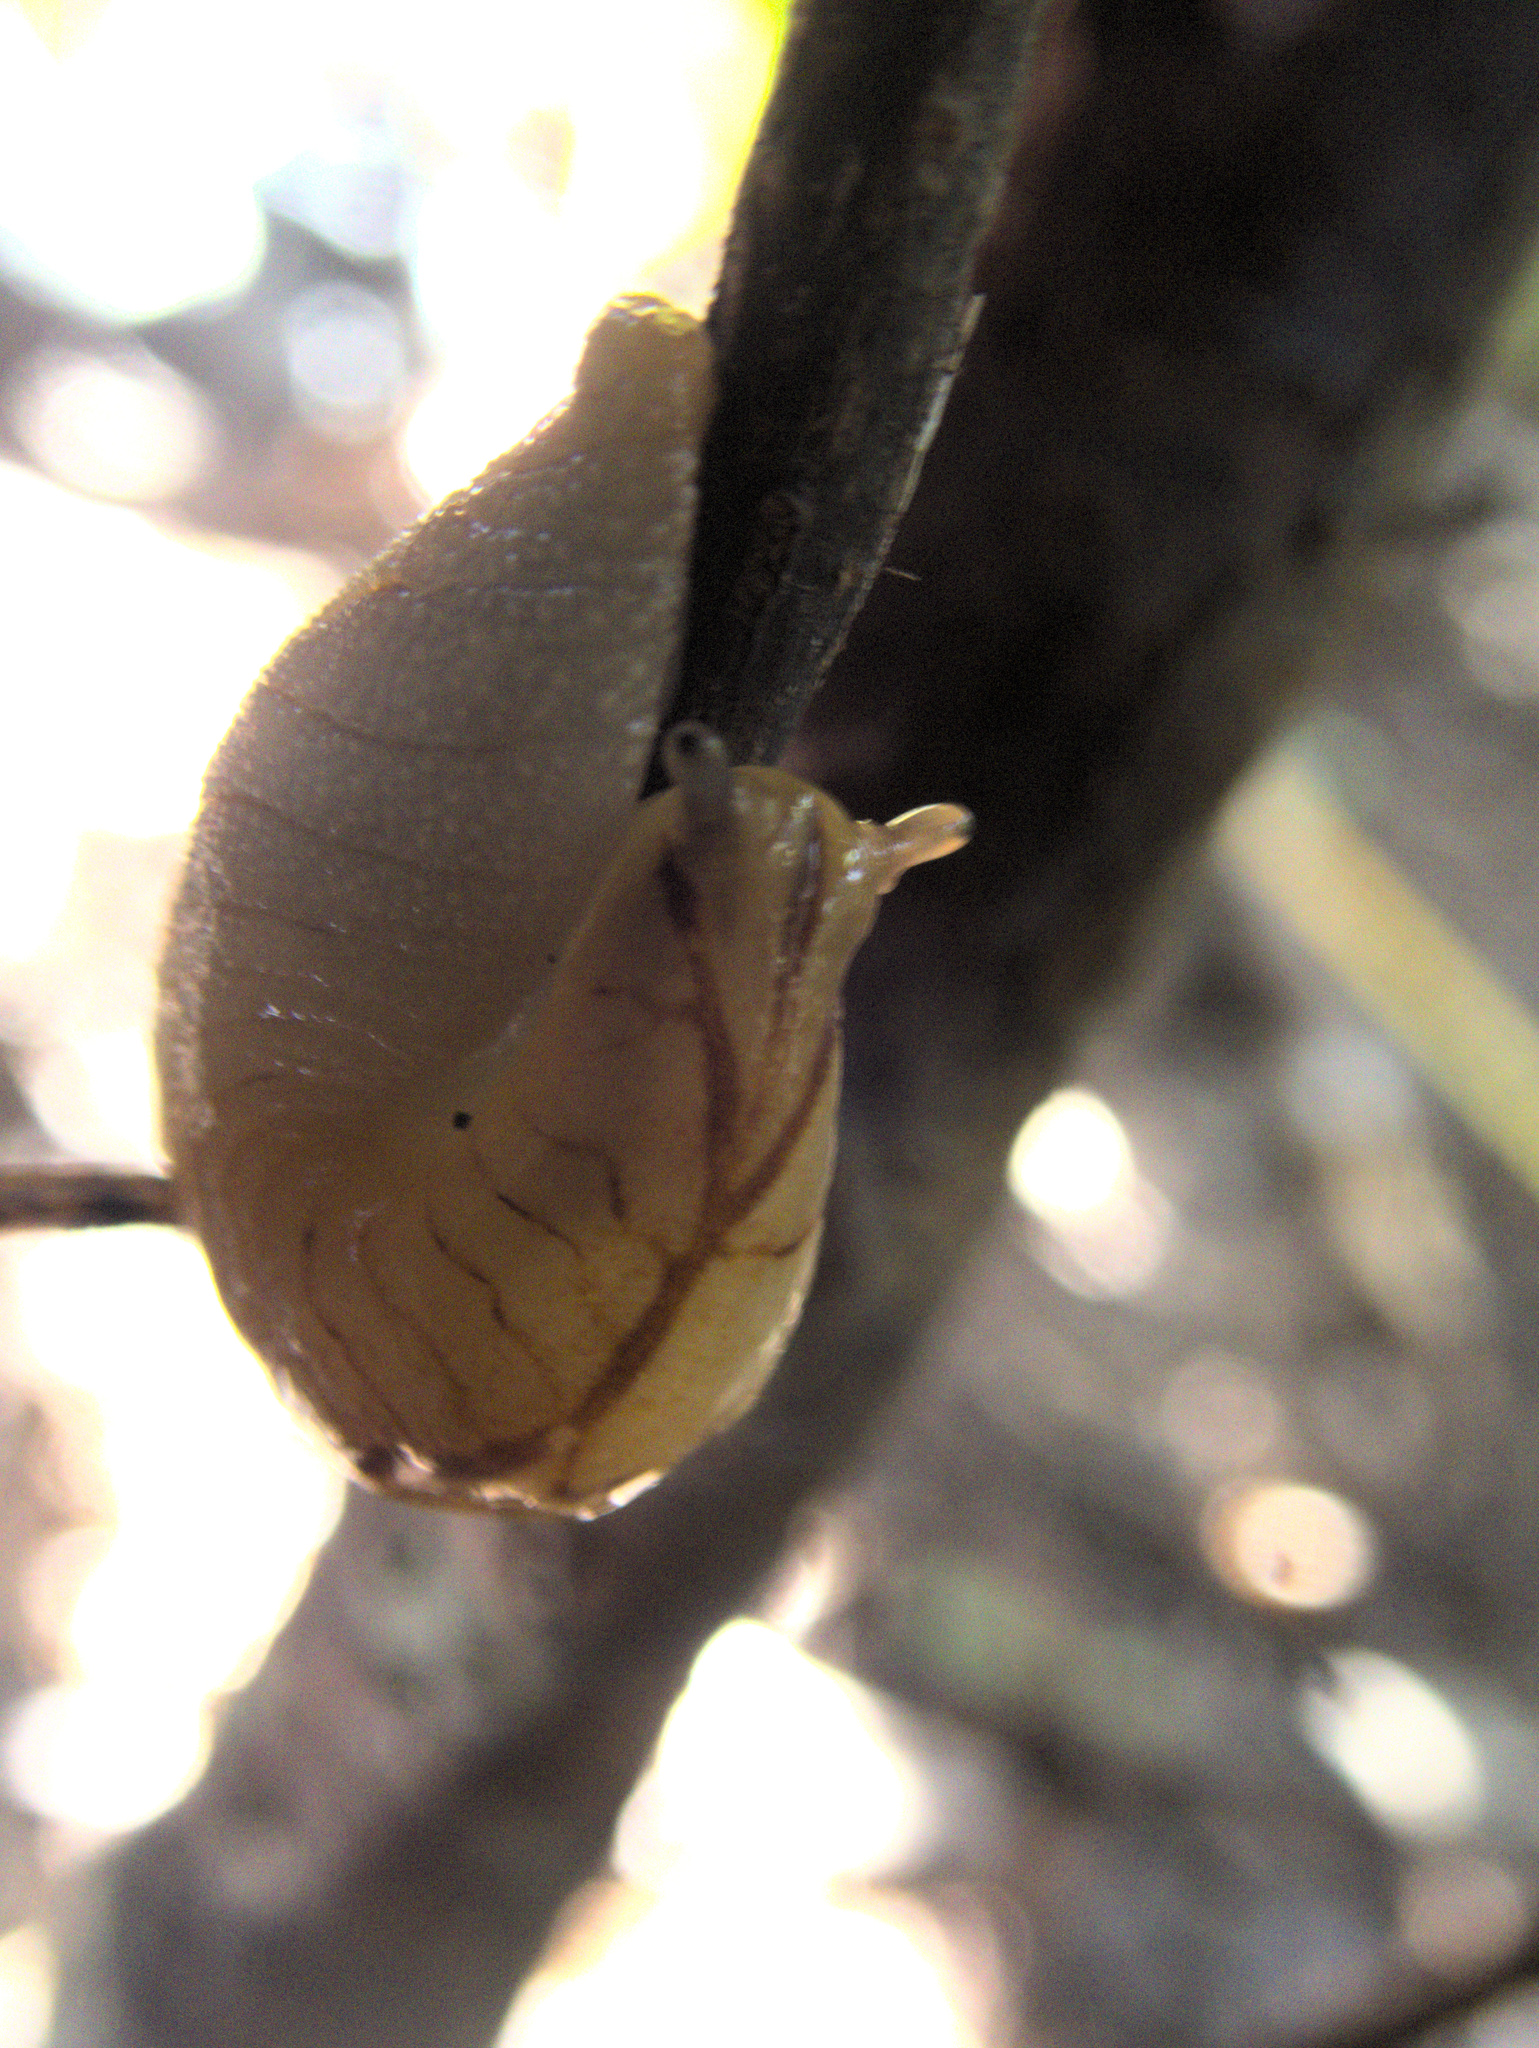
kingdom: Animalia
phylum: Mollusca
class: Gastropoda
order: Stylommatophora
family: Athoracophoridae
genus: Athoracophorus
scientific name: Athoracophorus bitentaculatus
